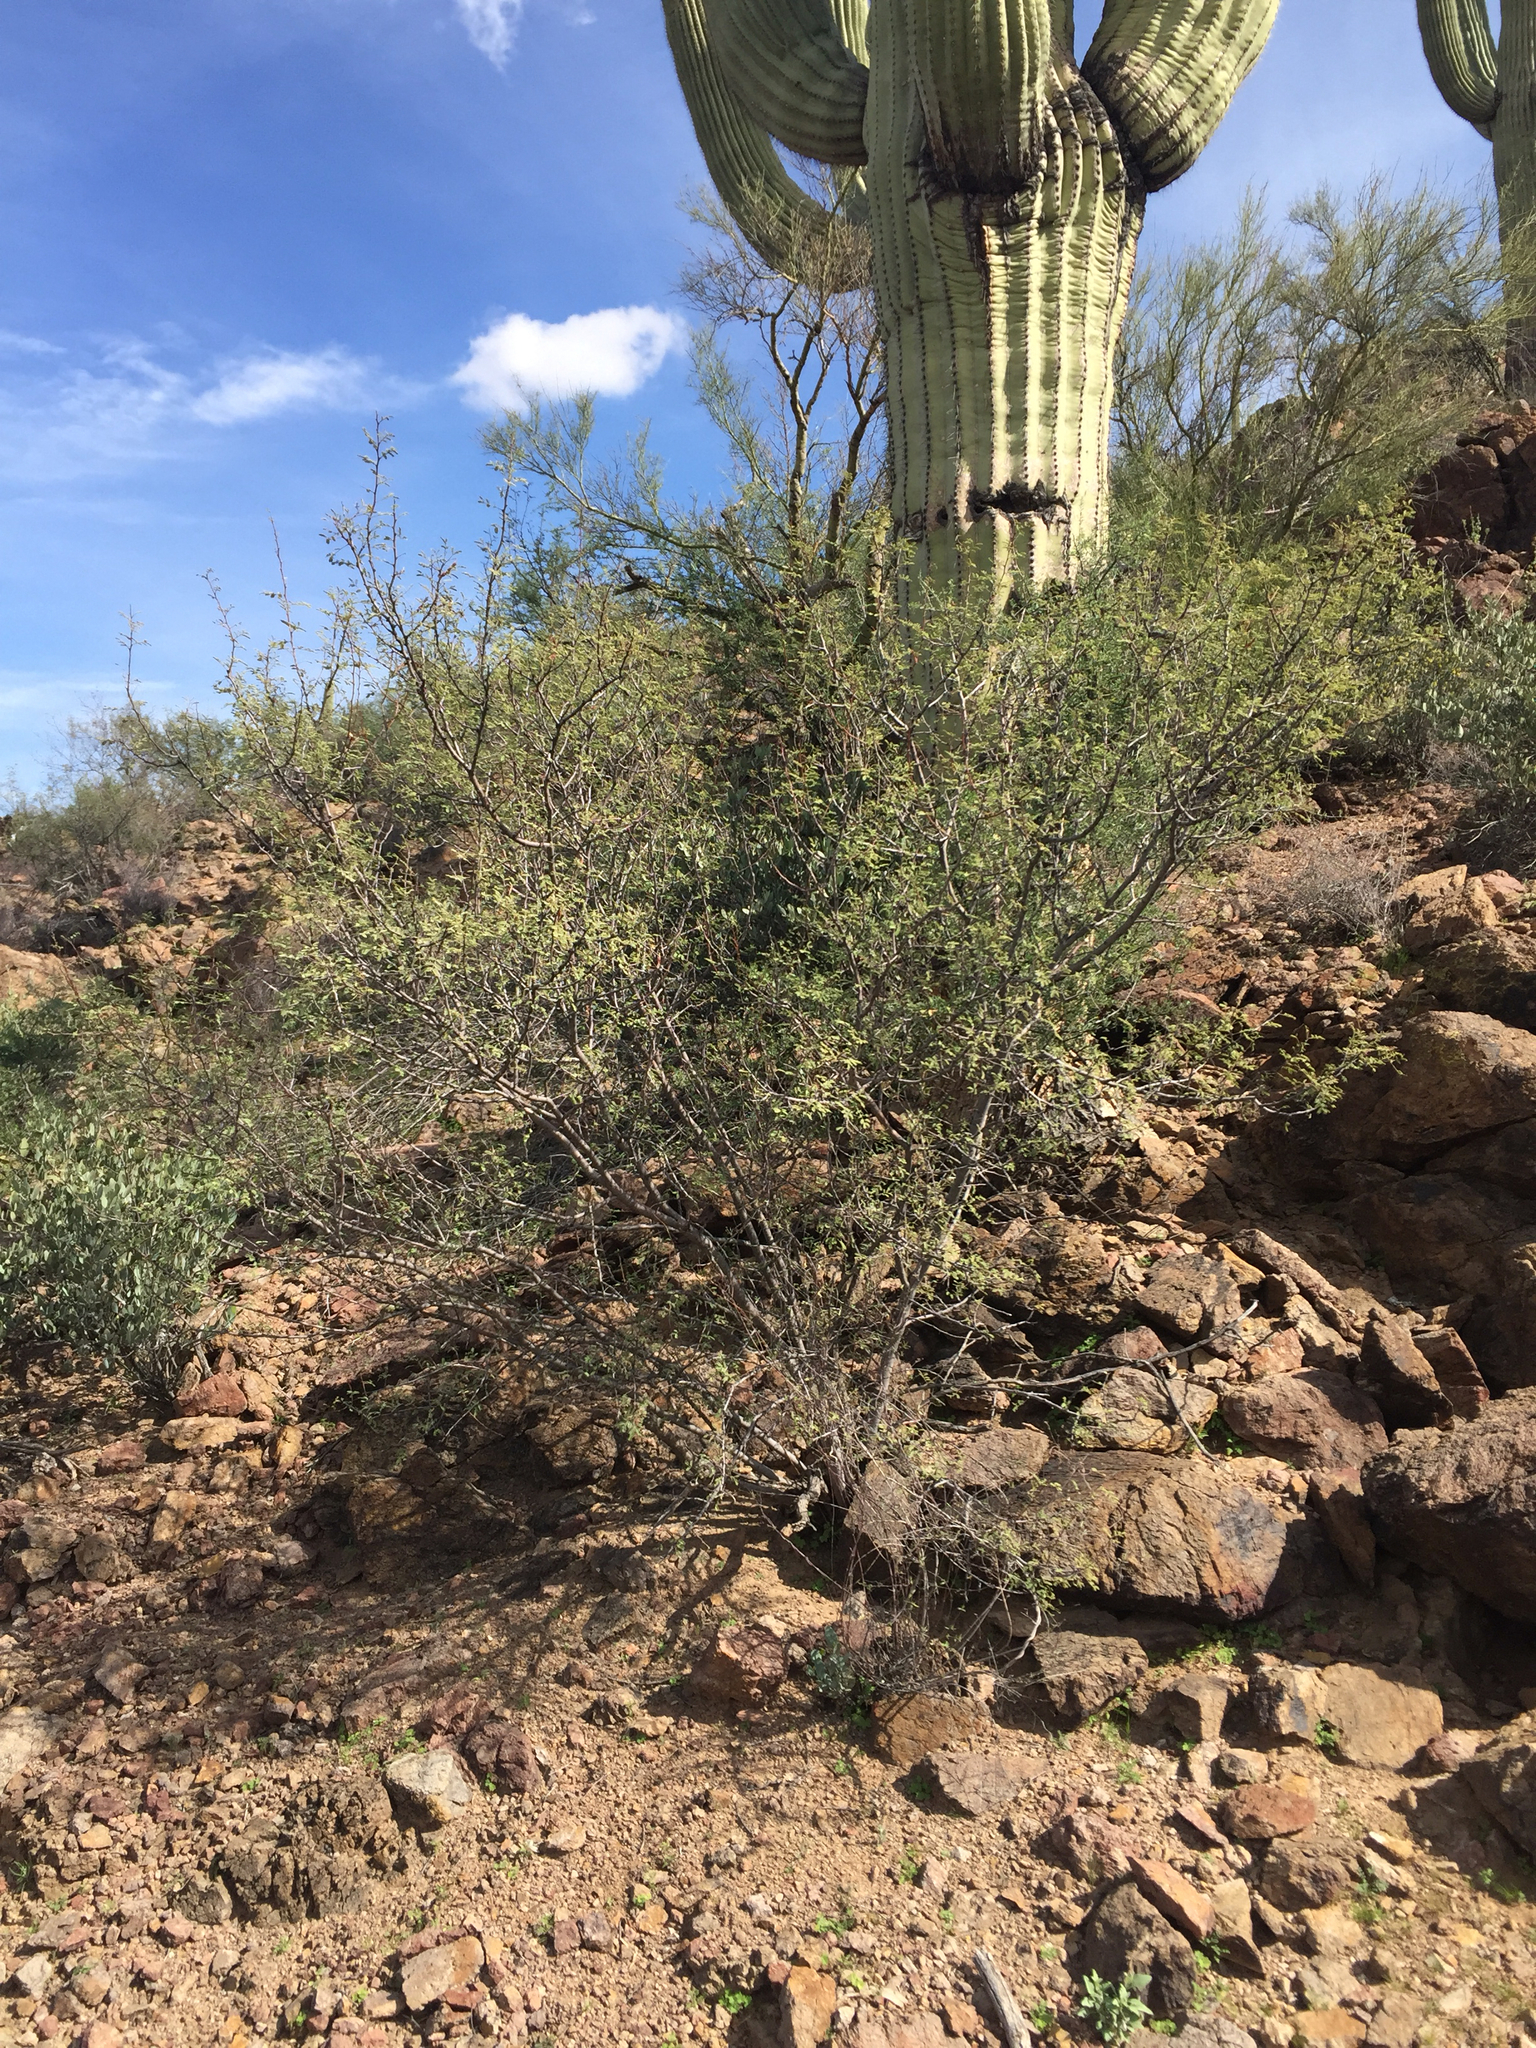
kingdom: Plantae
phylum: Tracheophyta
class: Magnoliopsida
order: Fabales
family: Fabaceae
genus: Vachellia
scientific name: Vachellia constricta
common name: Mescat acacia
